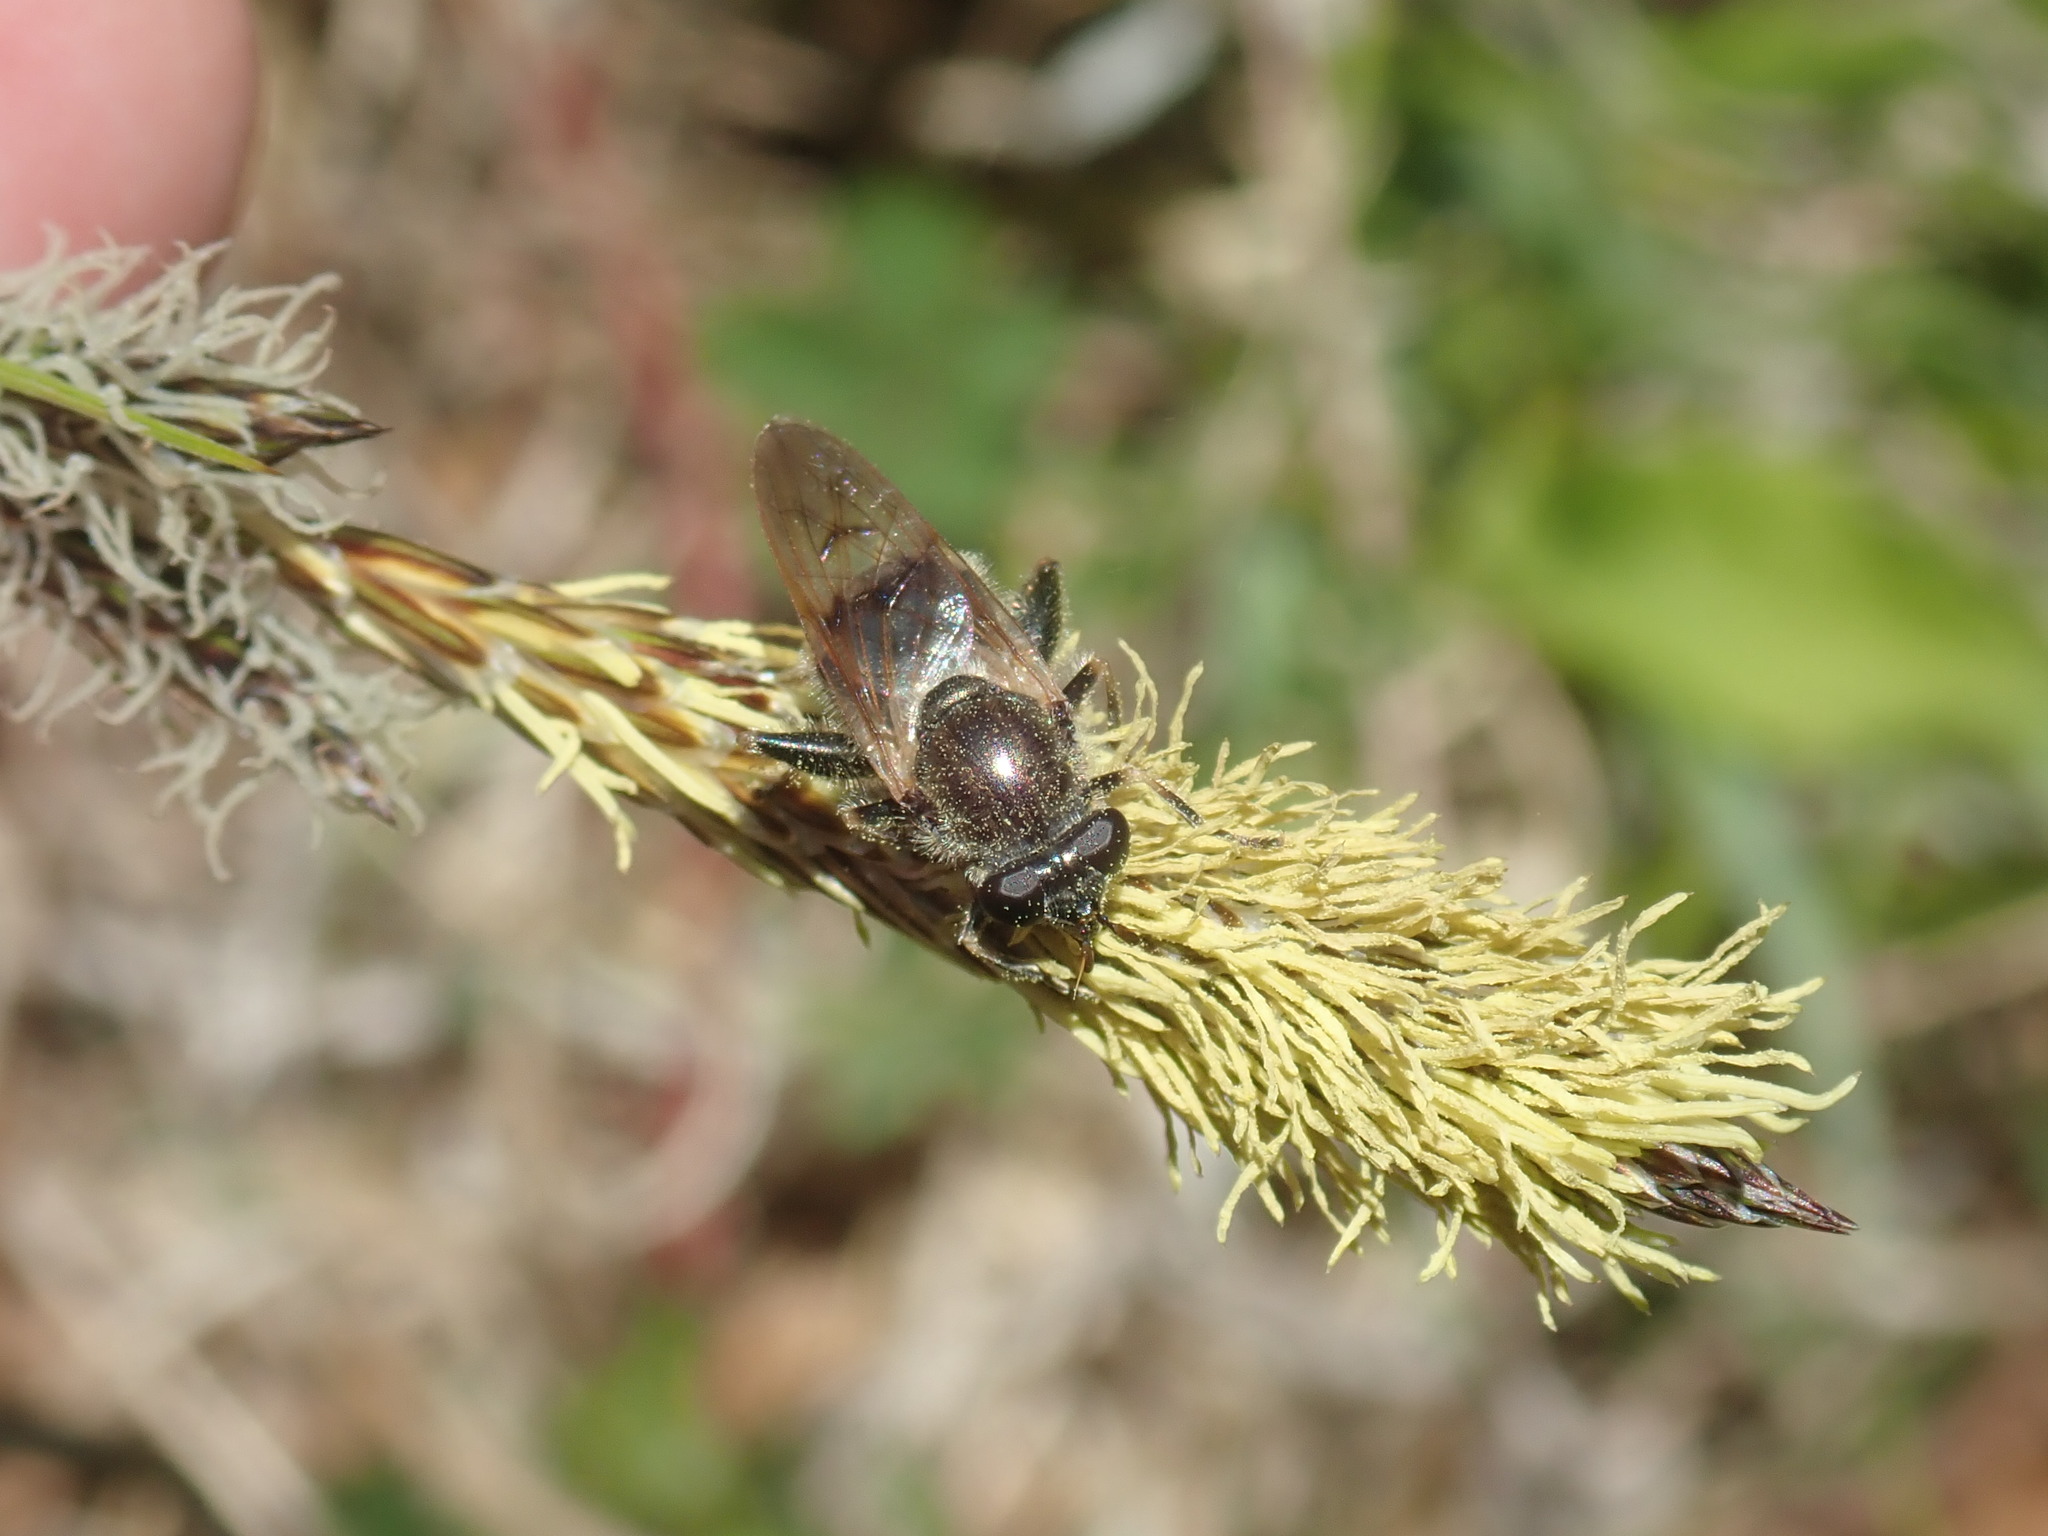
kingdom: Animalia
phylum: Arthropoda
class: Insecta
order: Diptera
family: Syrphidae
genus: Brachypalpus
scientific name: Brachypalpus oarus
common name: Eastern catkin fly
